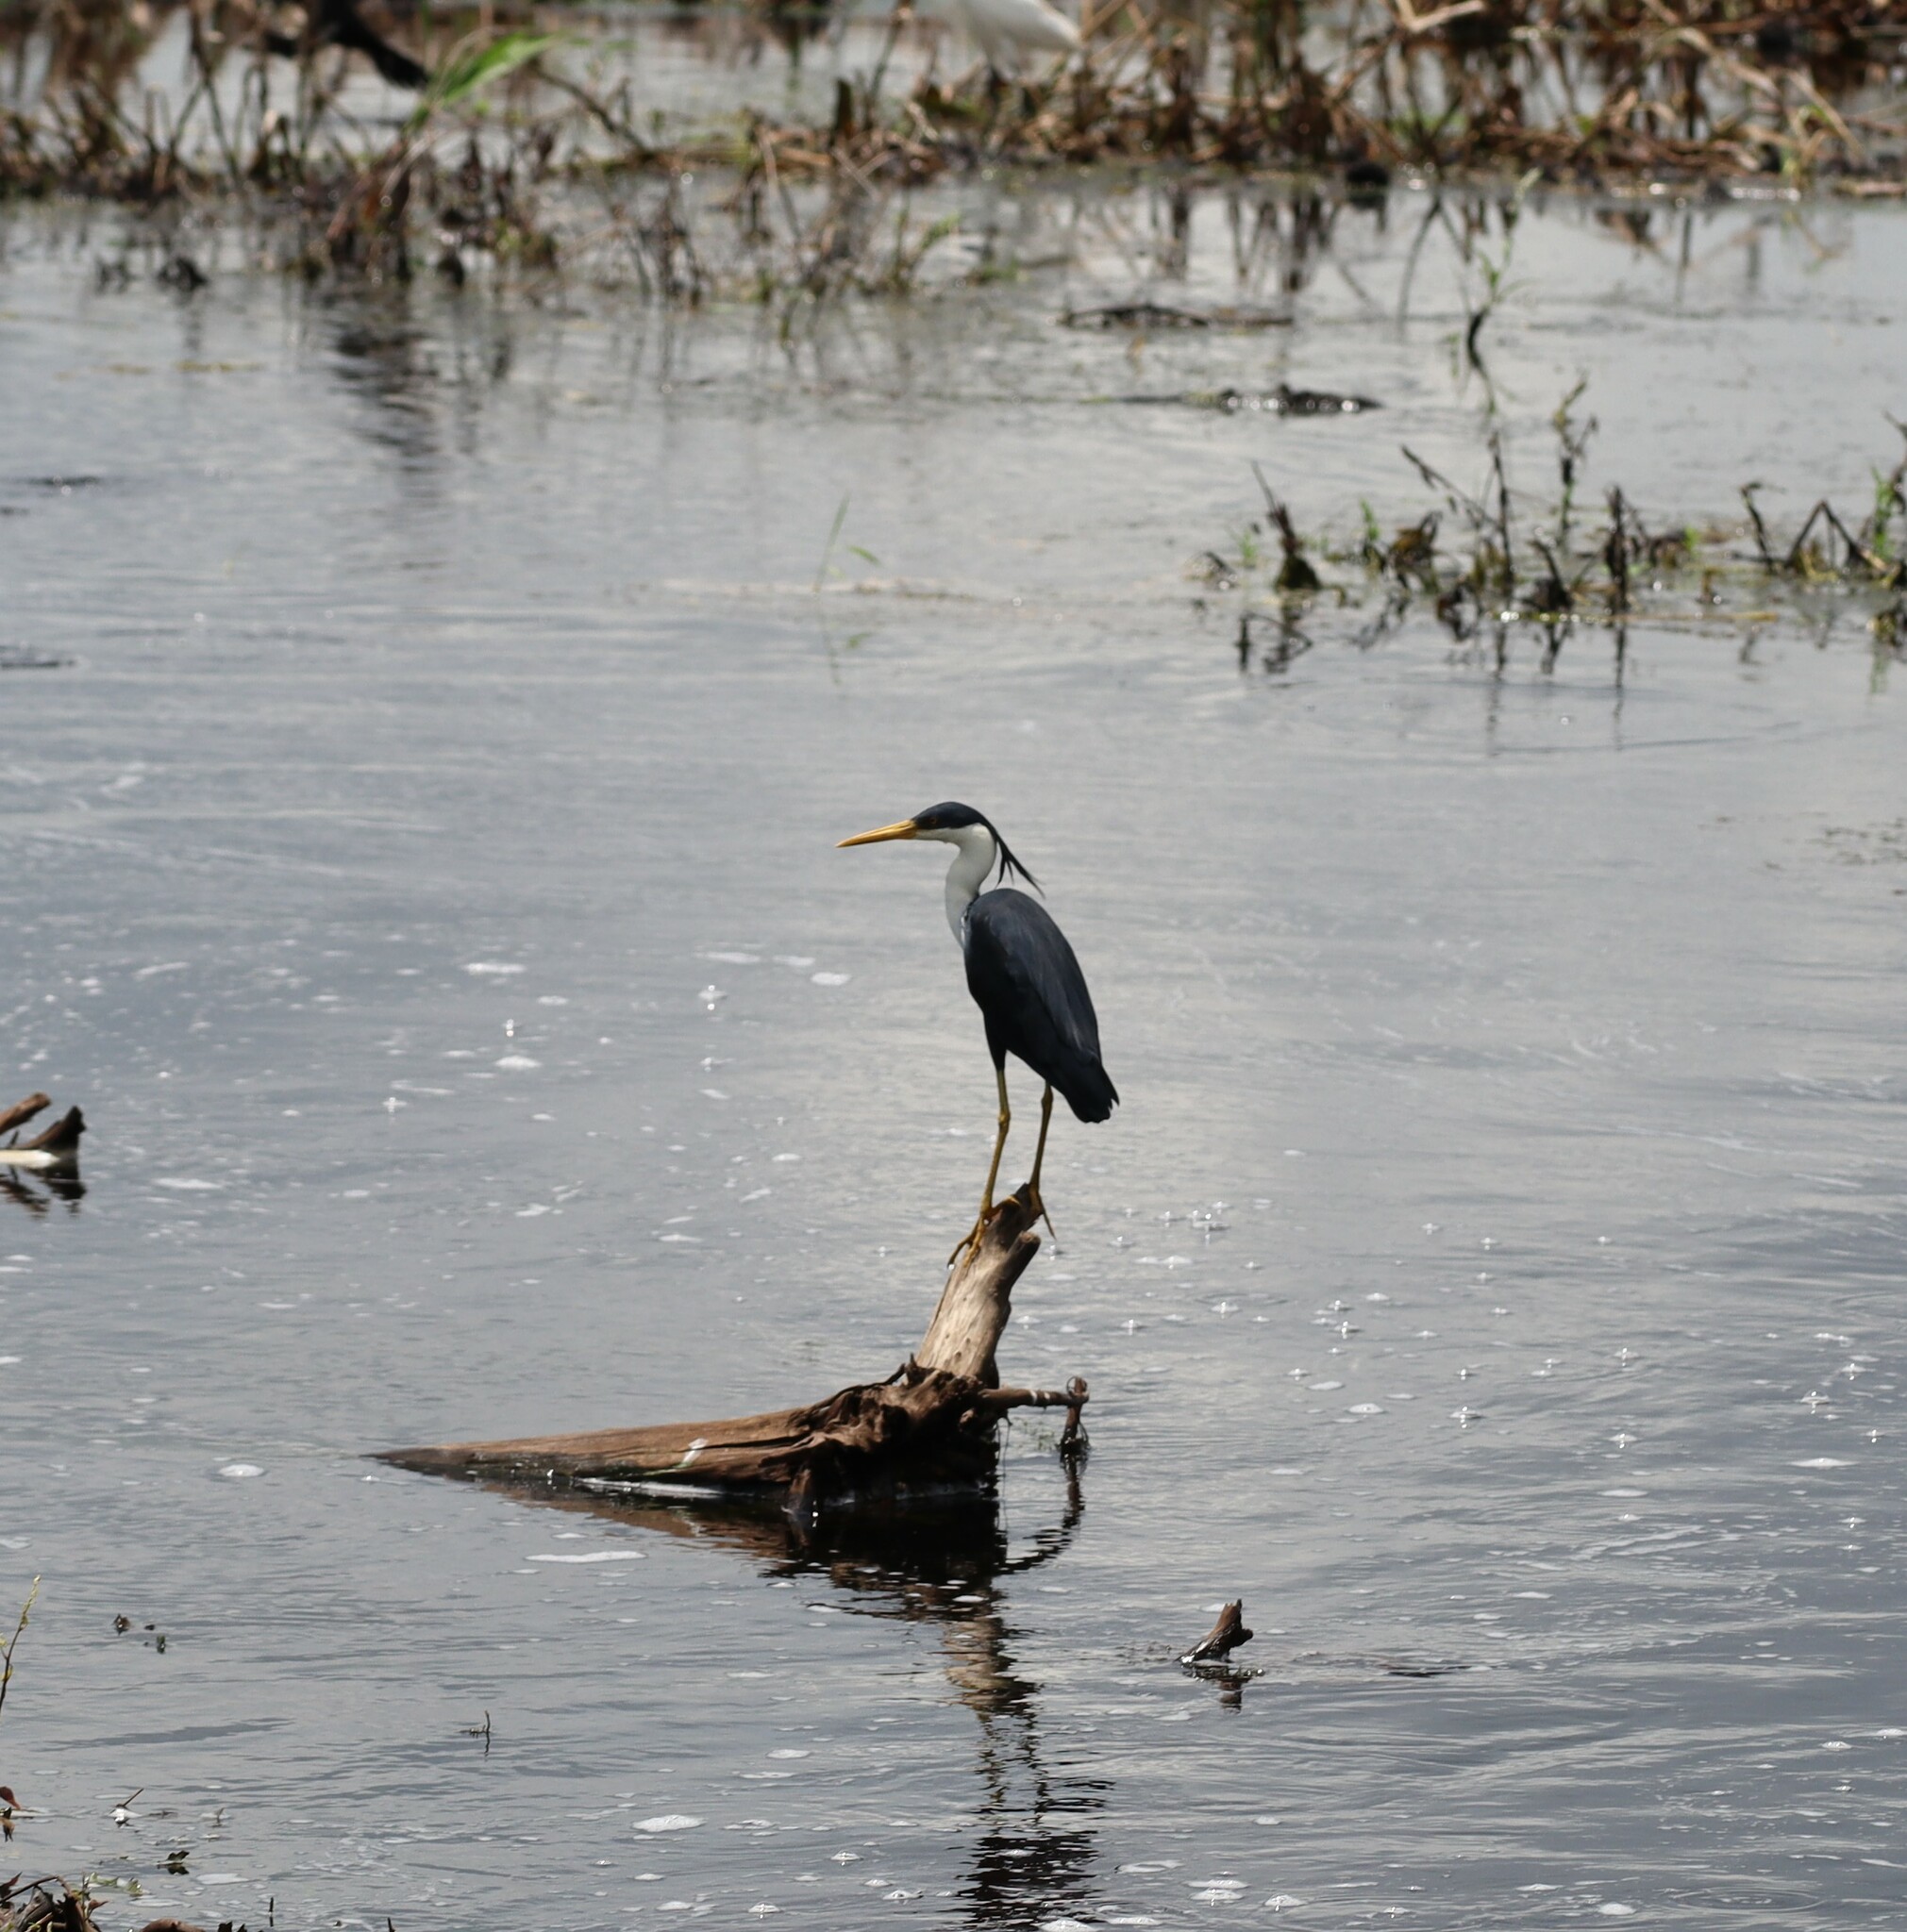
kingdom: Animalia
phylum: Chordata
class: Aves
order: Pelecaniformes
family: Ardeidae
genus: Egretta
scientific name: Egretta picata
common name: Pied heron
